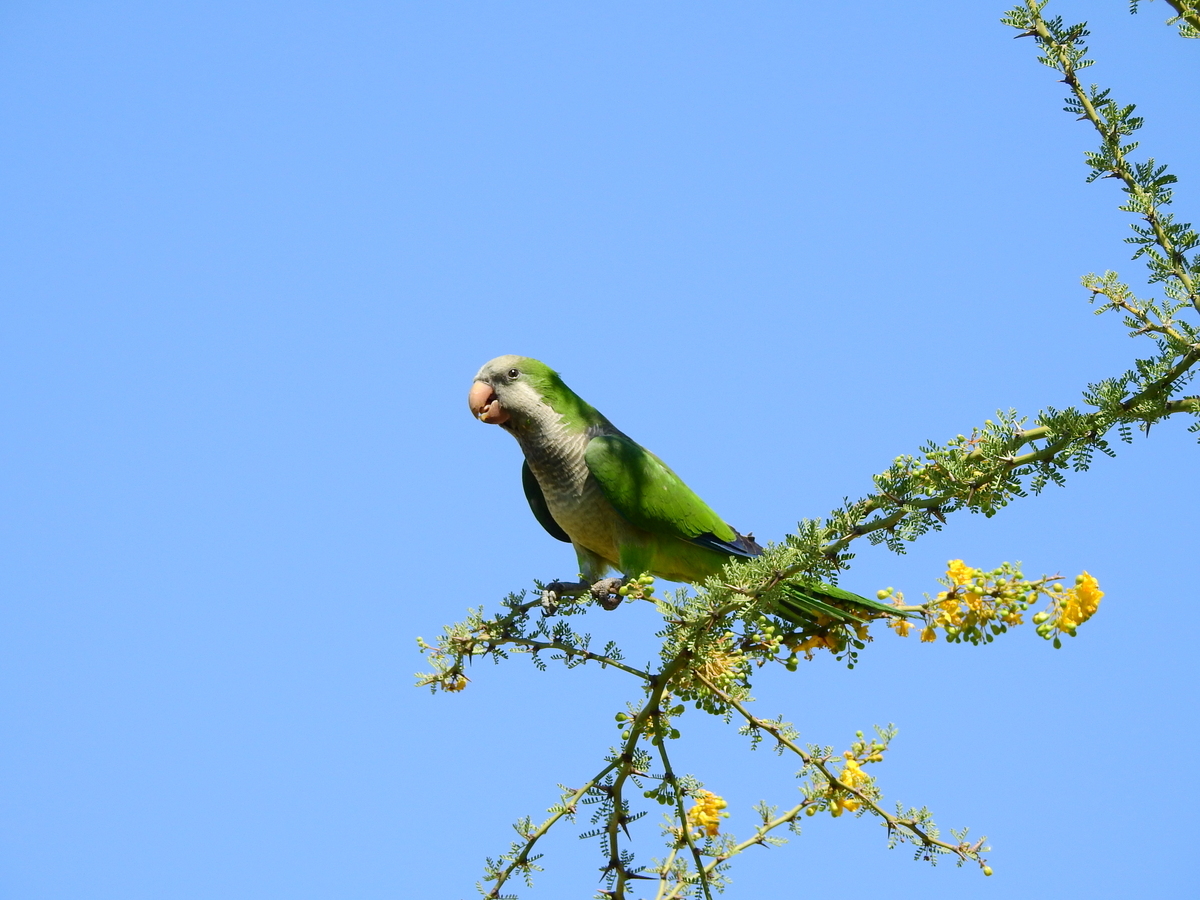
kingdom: Animalia
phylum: Chordata
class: Aves
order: Psittaciformes
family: Psittacidae
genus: Myiopsitta
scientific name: Myiopsitta monachus
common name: Monk parakeet
